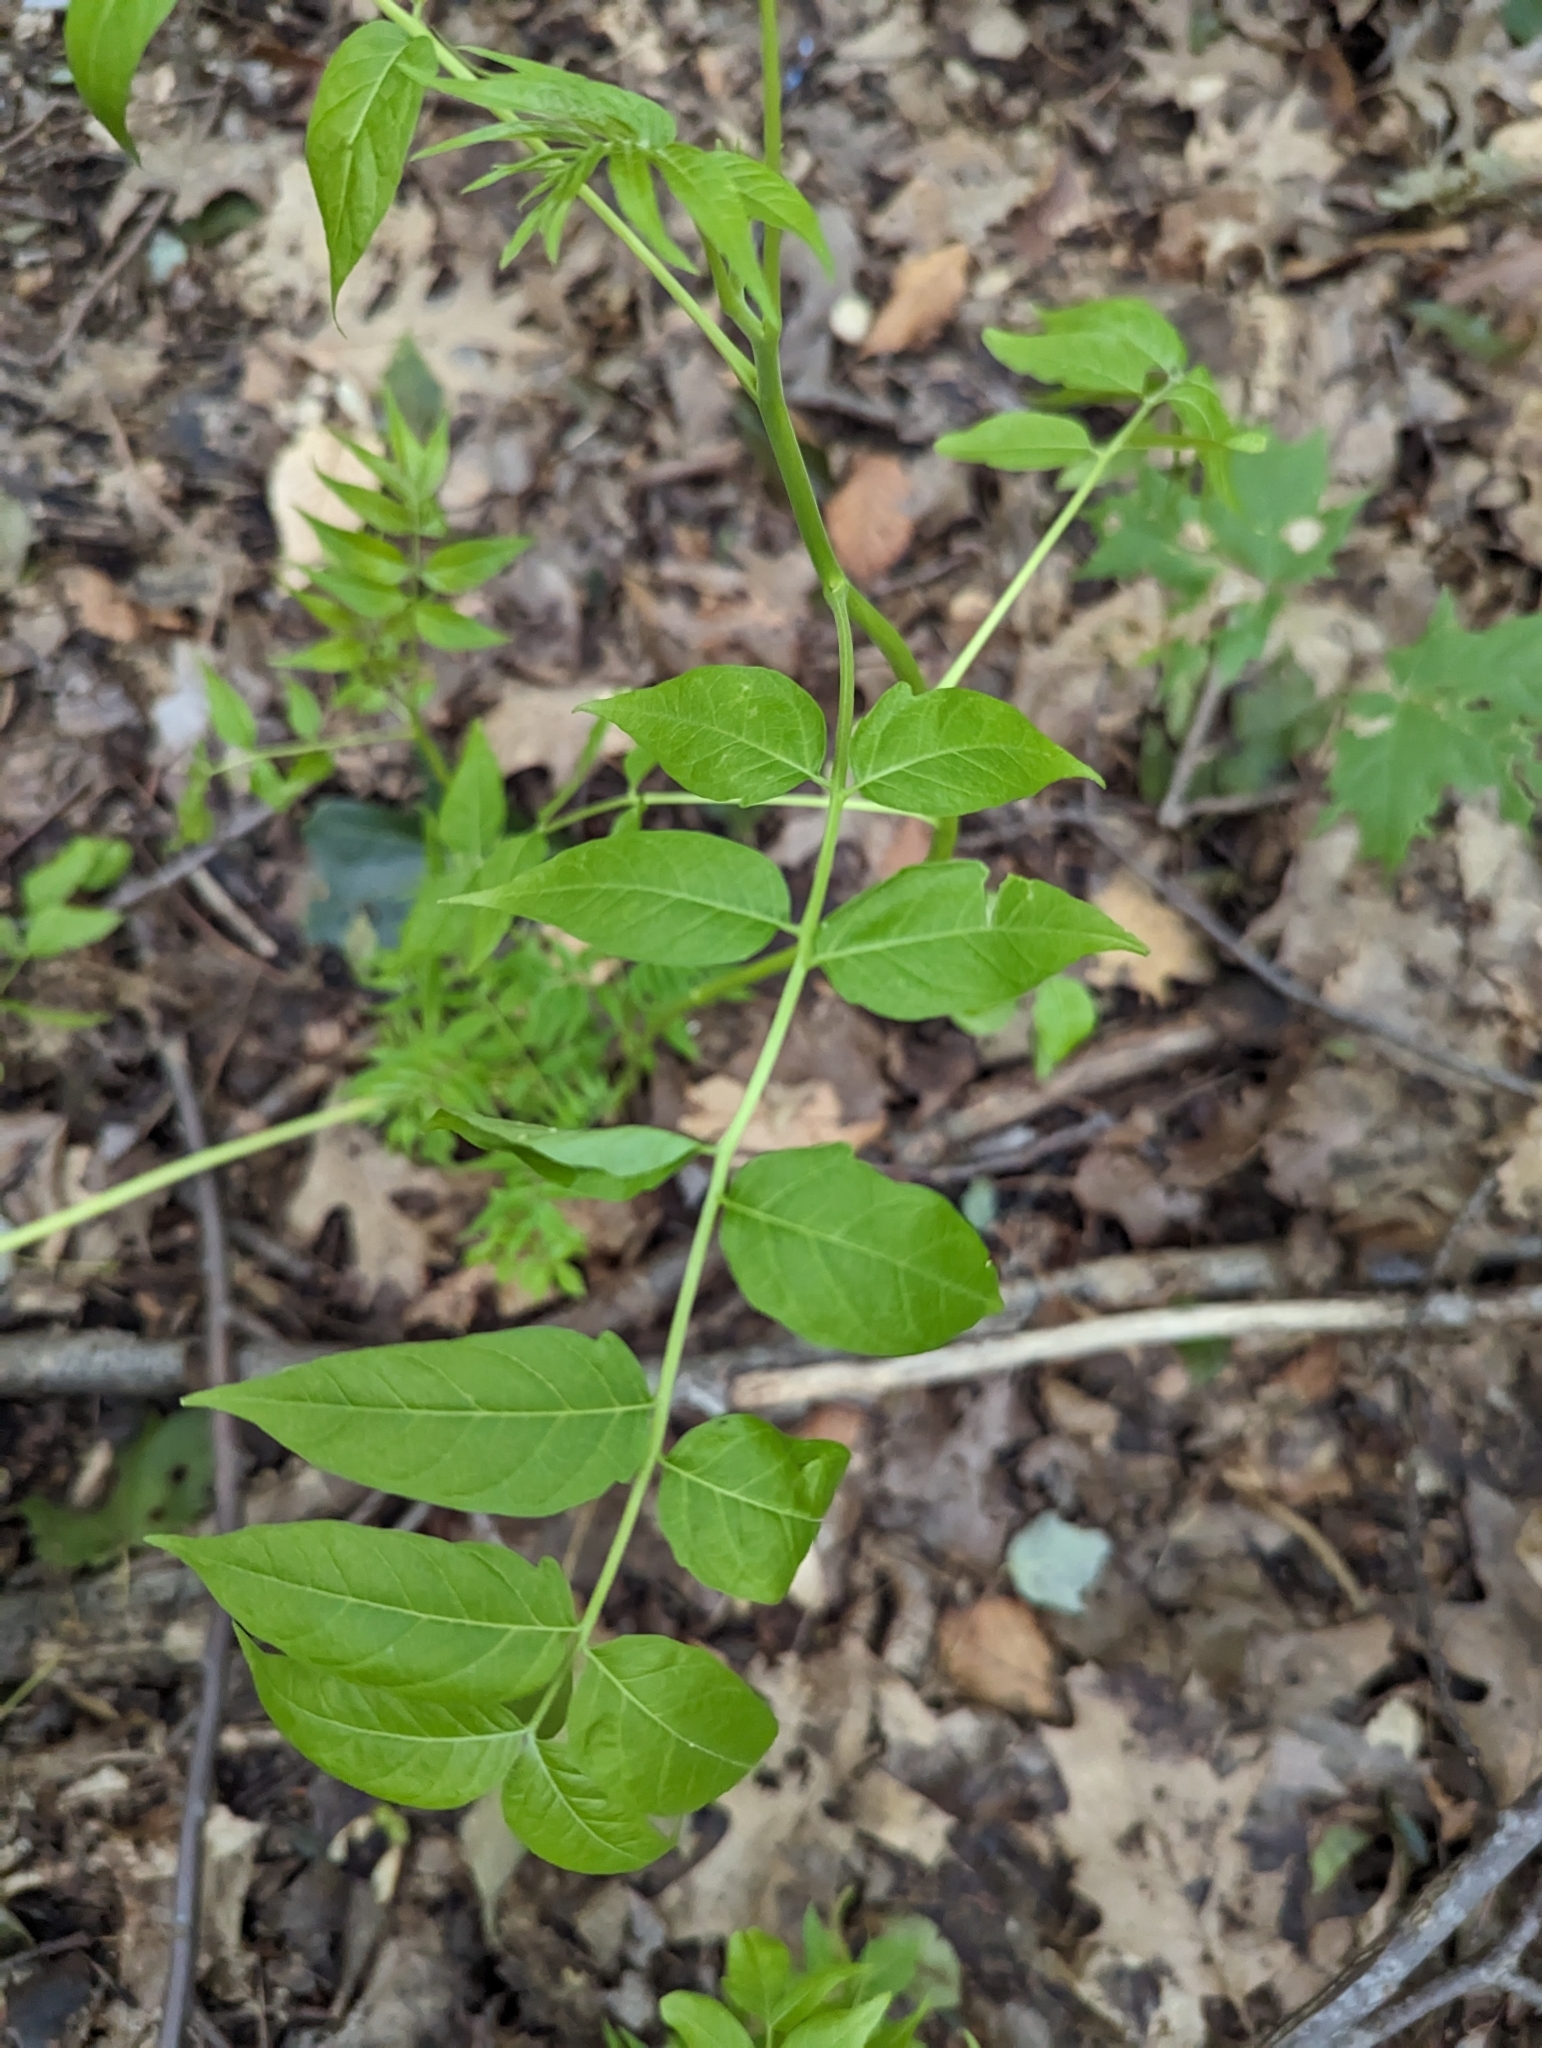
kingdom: Plantae
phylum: Tracheophyta
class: Magnoliopsida
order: Sapindales
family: Simaroubaceae
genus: Ailanthus
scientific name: Ailanthus altissima
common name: Tree-of-heaven
